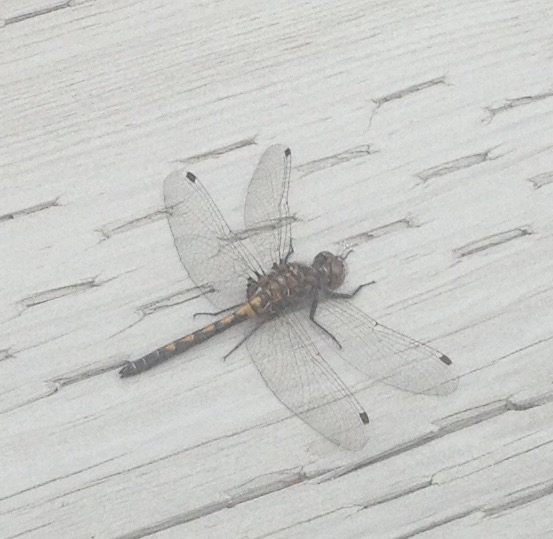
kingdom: Animalia
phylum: Arthropoda
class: Insecta
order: Odonata
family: Libellulidae
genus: Leucorrhinia
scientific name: Leucorrhinia hudsonica
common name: Hudsonian whiteface
